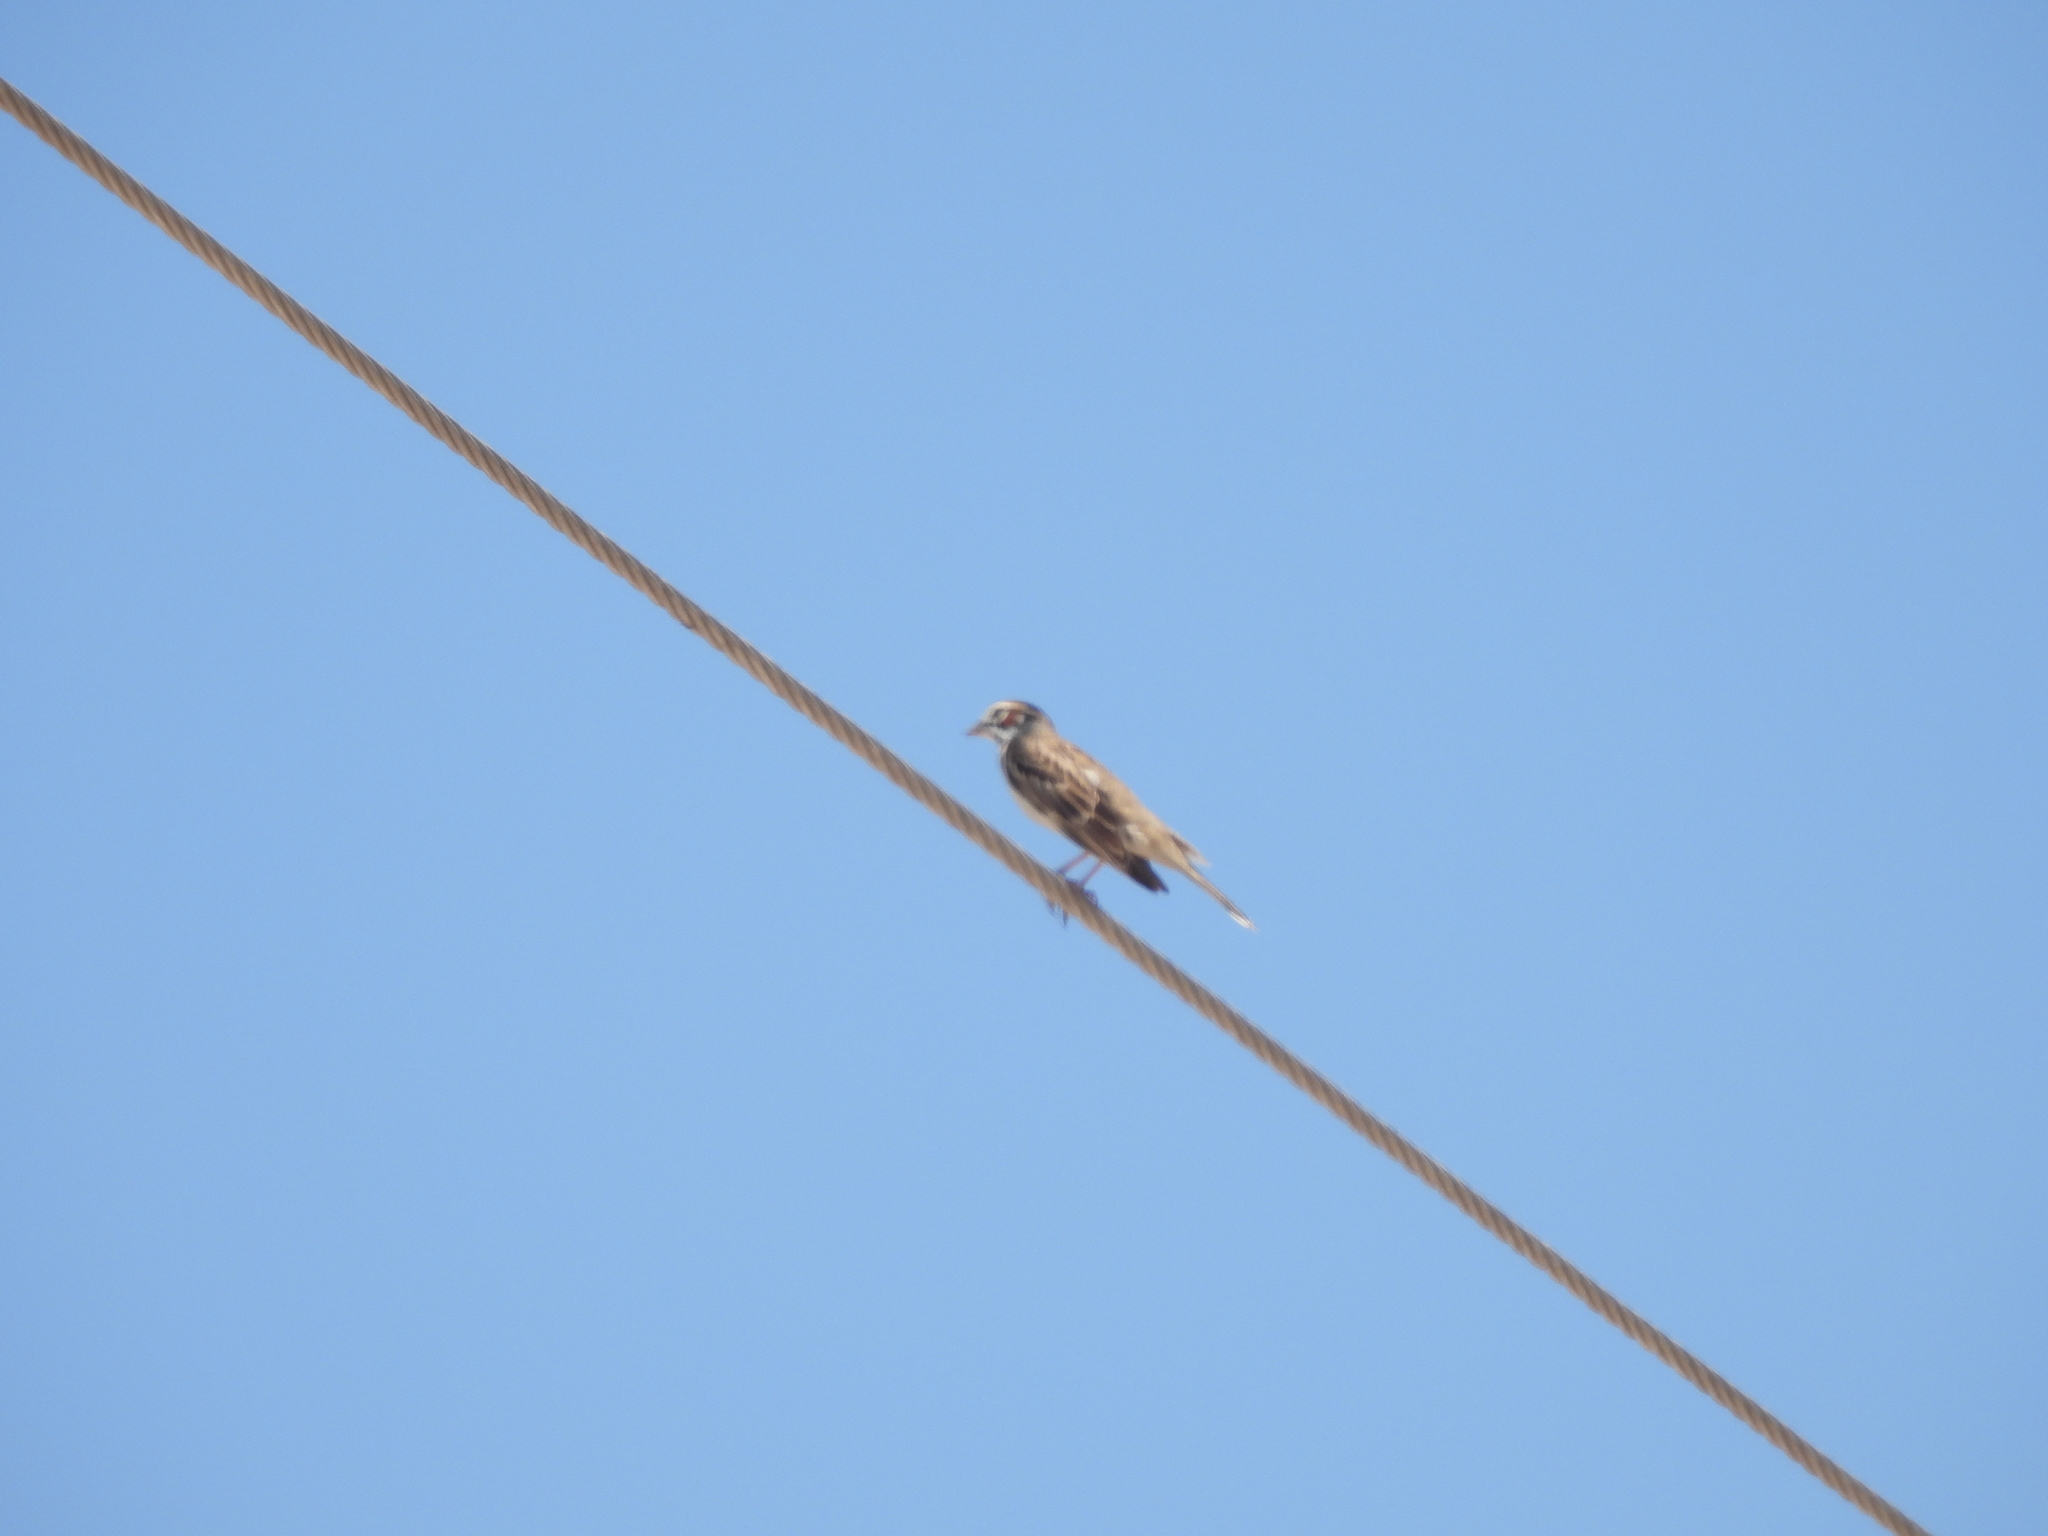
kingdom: Animalia
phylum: Chordata
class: Aves
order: Passeriformes
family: Passerellidae
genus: Chondestes
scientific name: Chondestes grammacus
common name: Lark sparrow
